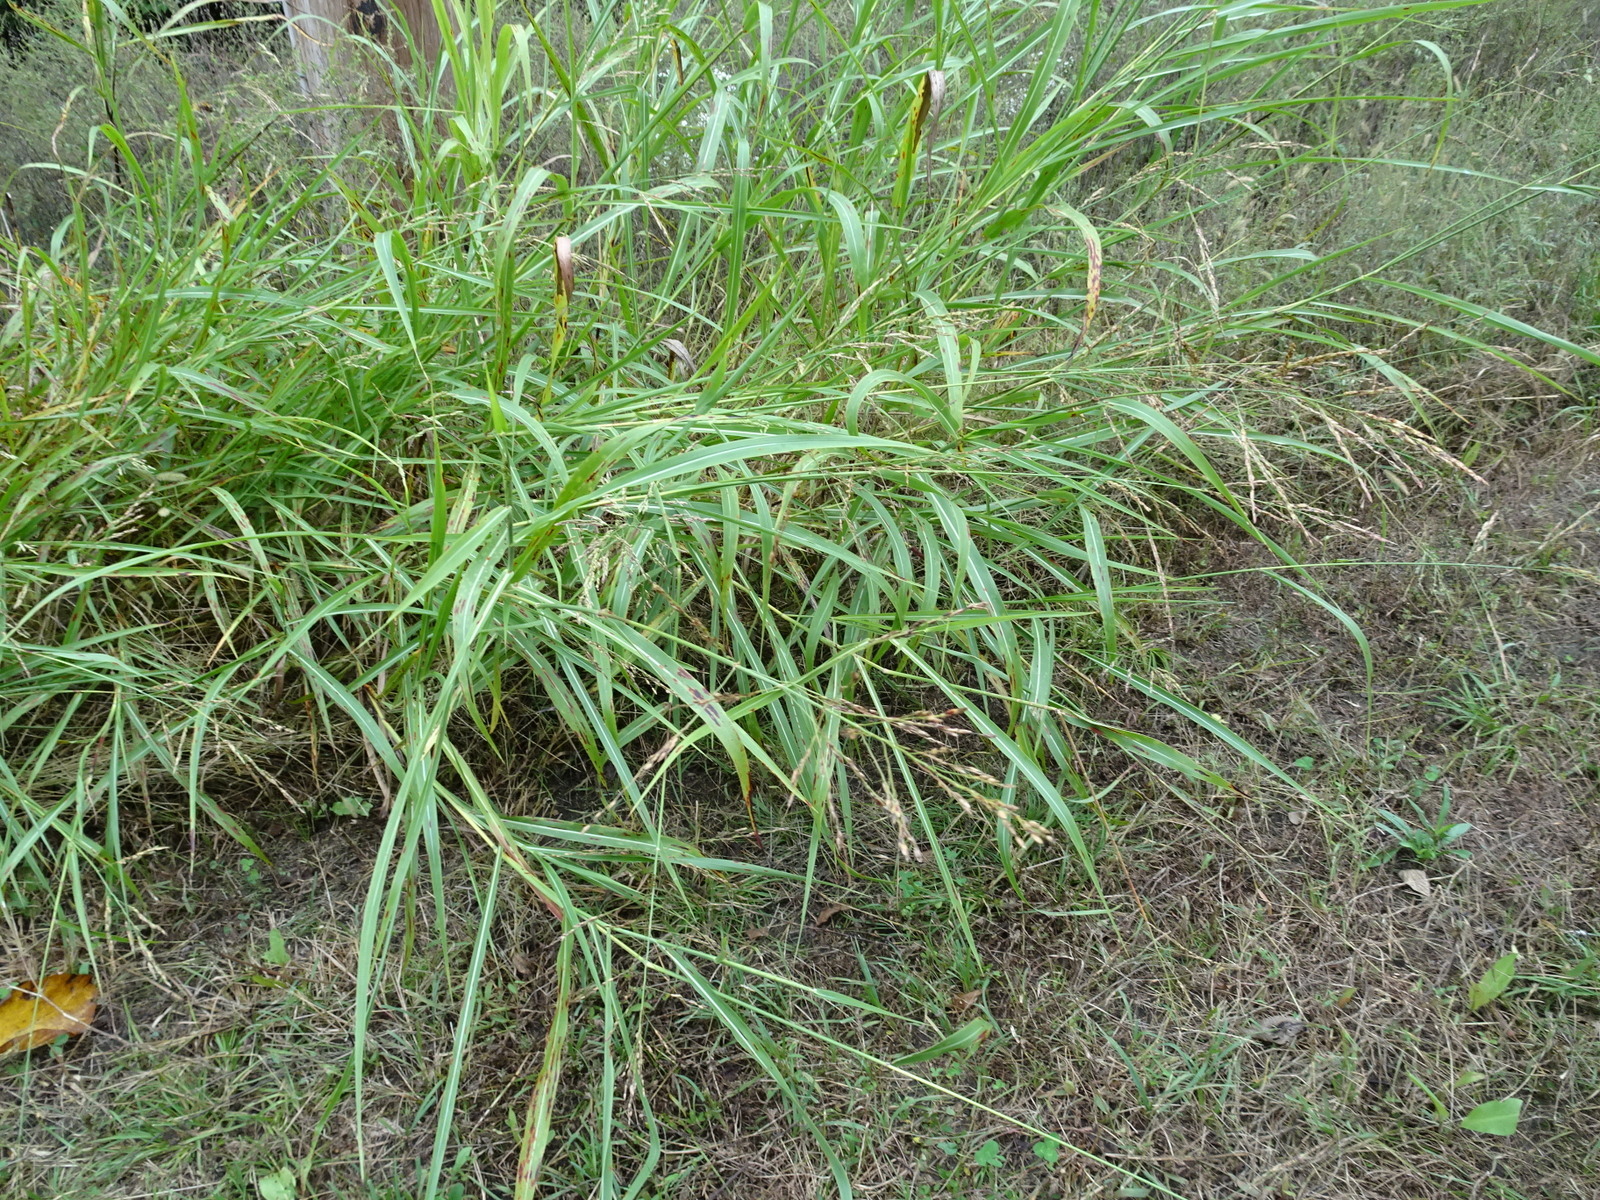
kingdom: Plantae
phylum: Tracheophyta
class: Liliopsida
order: Poales
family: Poaceae
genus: Sorghum
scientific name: Sorghum halepense
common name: Johnson-grass
